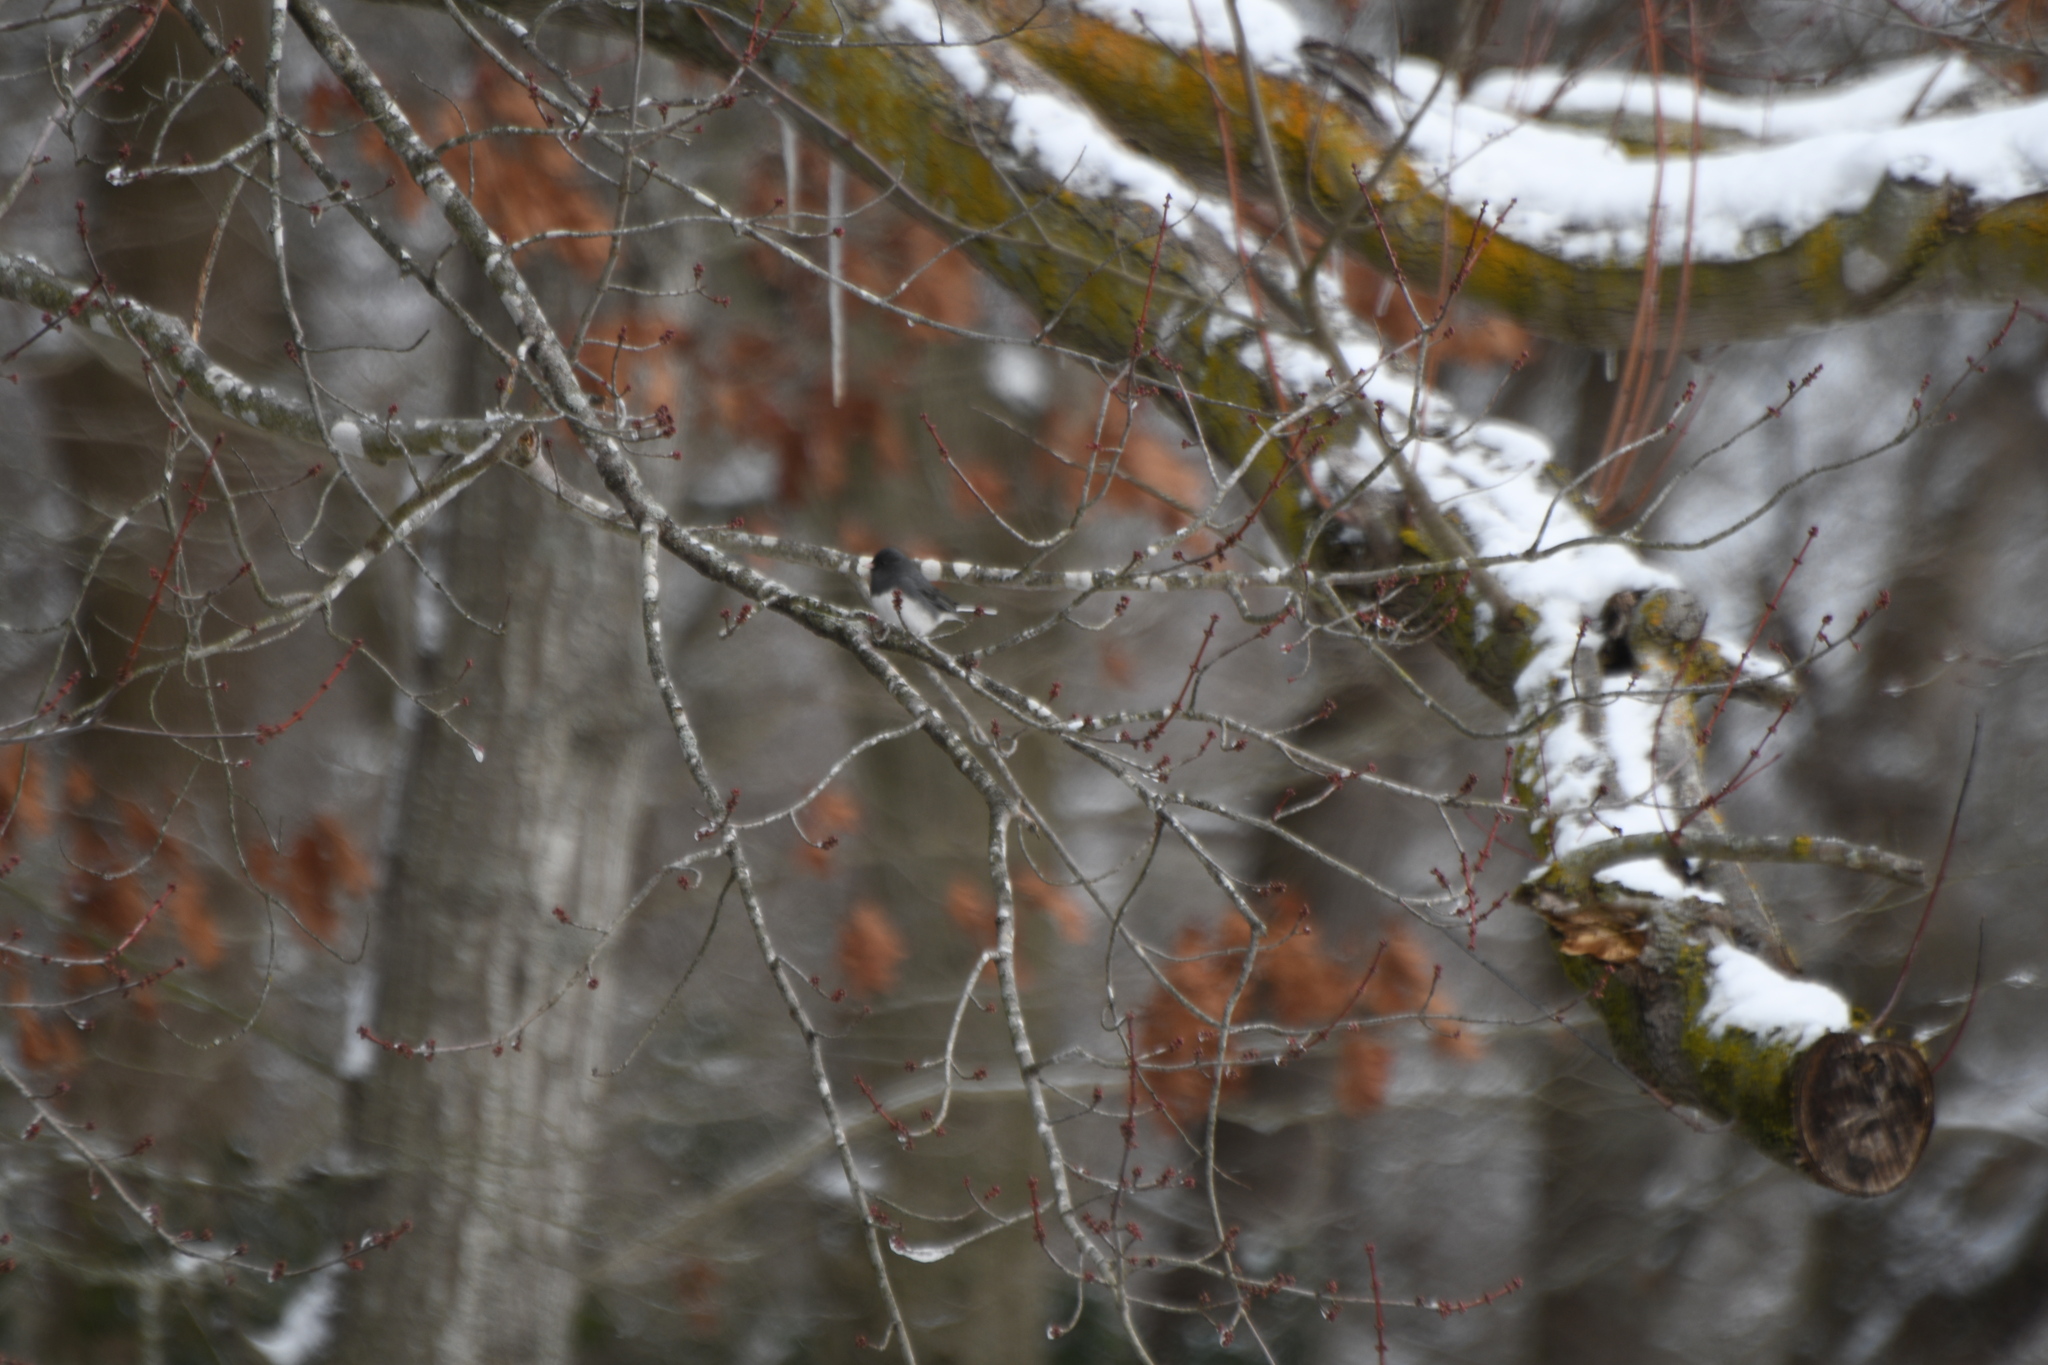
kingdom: Animalia
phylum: Chordata
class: Aves
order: Passeriformes
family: Passerellidae
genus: Junco
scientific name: Junco hyemalis
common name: Dark-eyed junco
